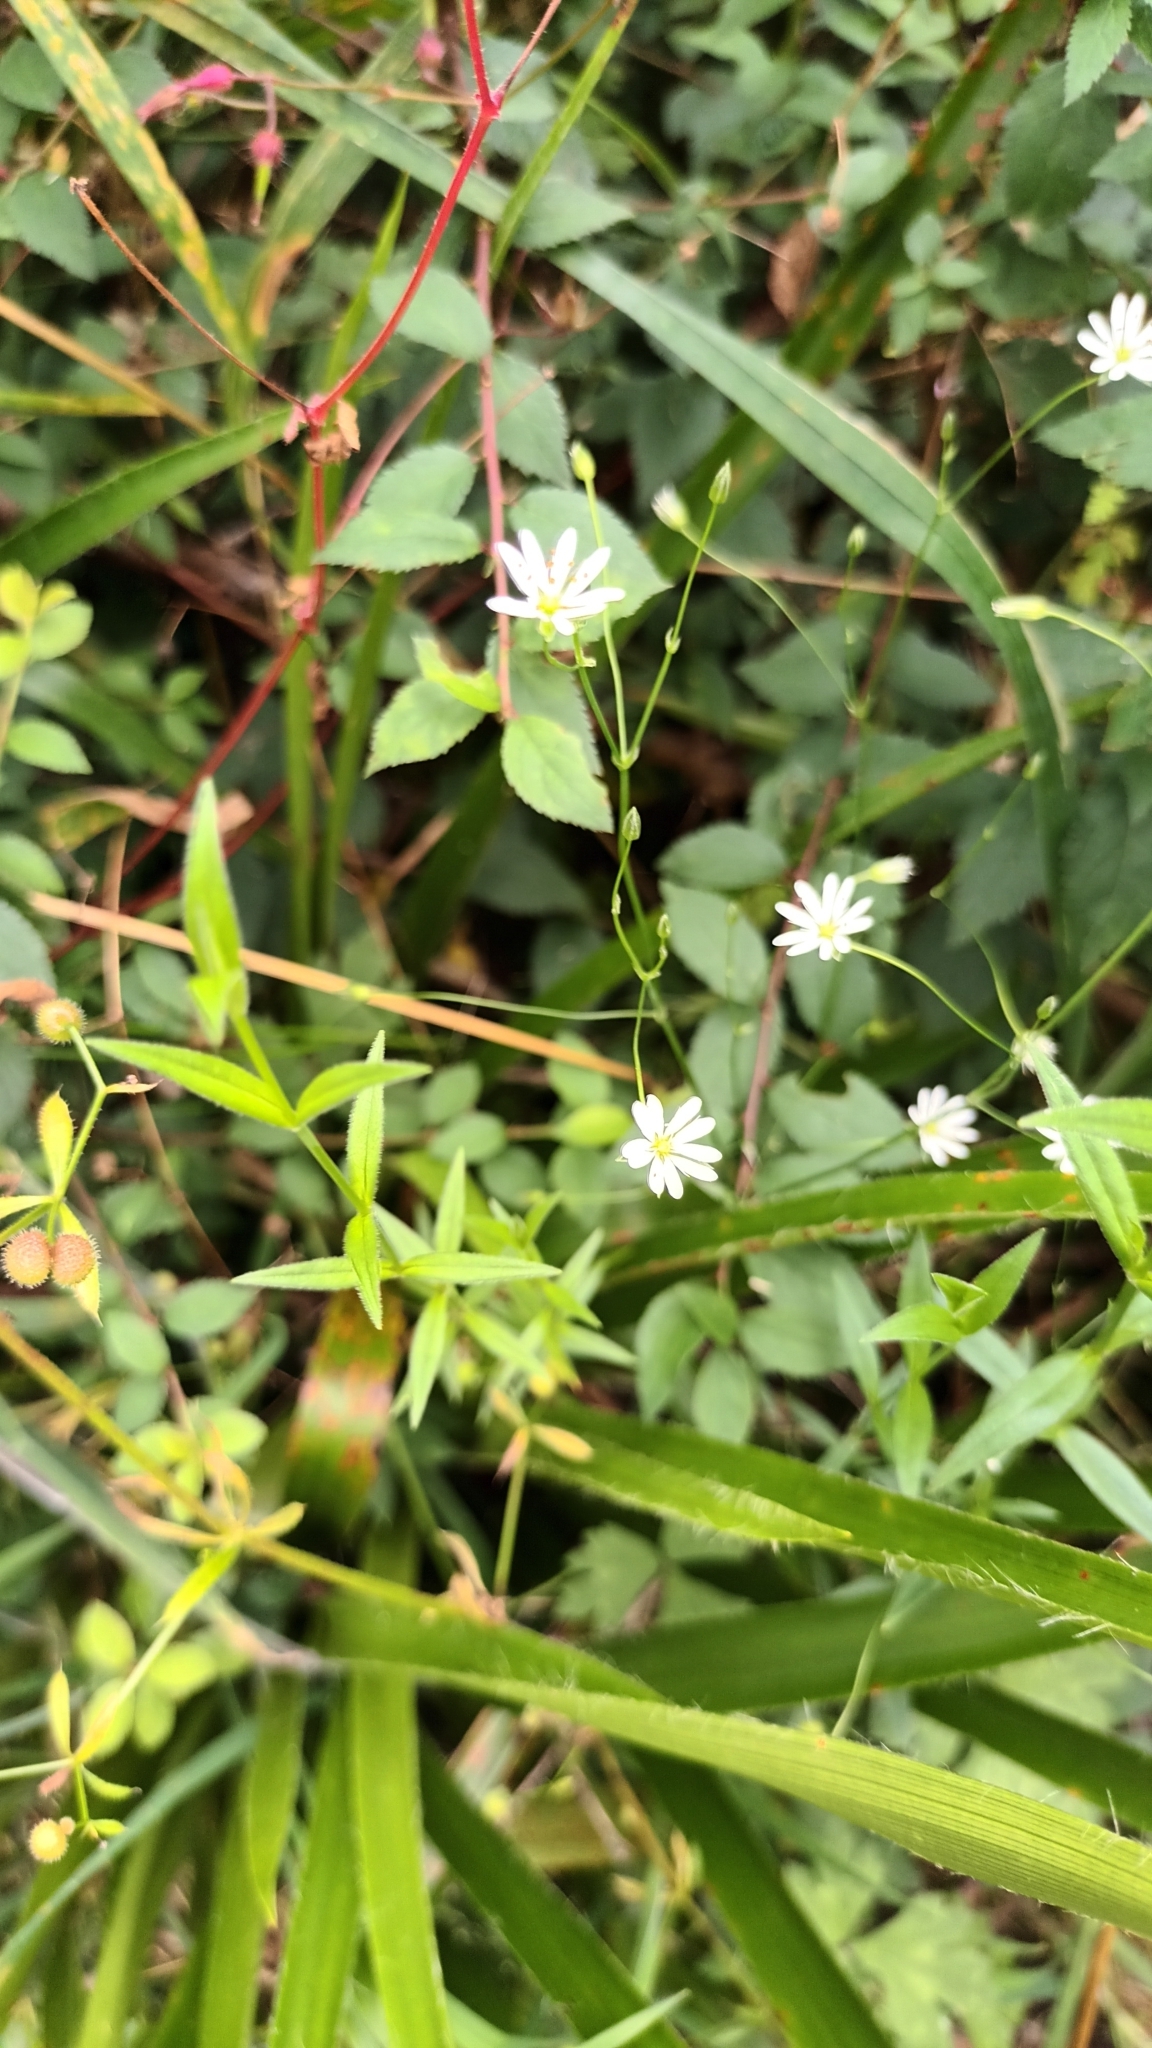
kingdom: Plantae
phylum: Tracheophyta
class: Magnoliopsida
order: Caryophyllales
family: Caryophyllaceae
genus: Stellaria
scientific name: Stellaria graminea
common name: Grass-like starwort
